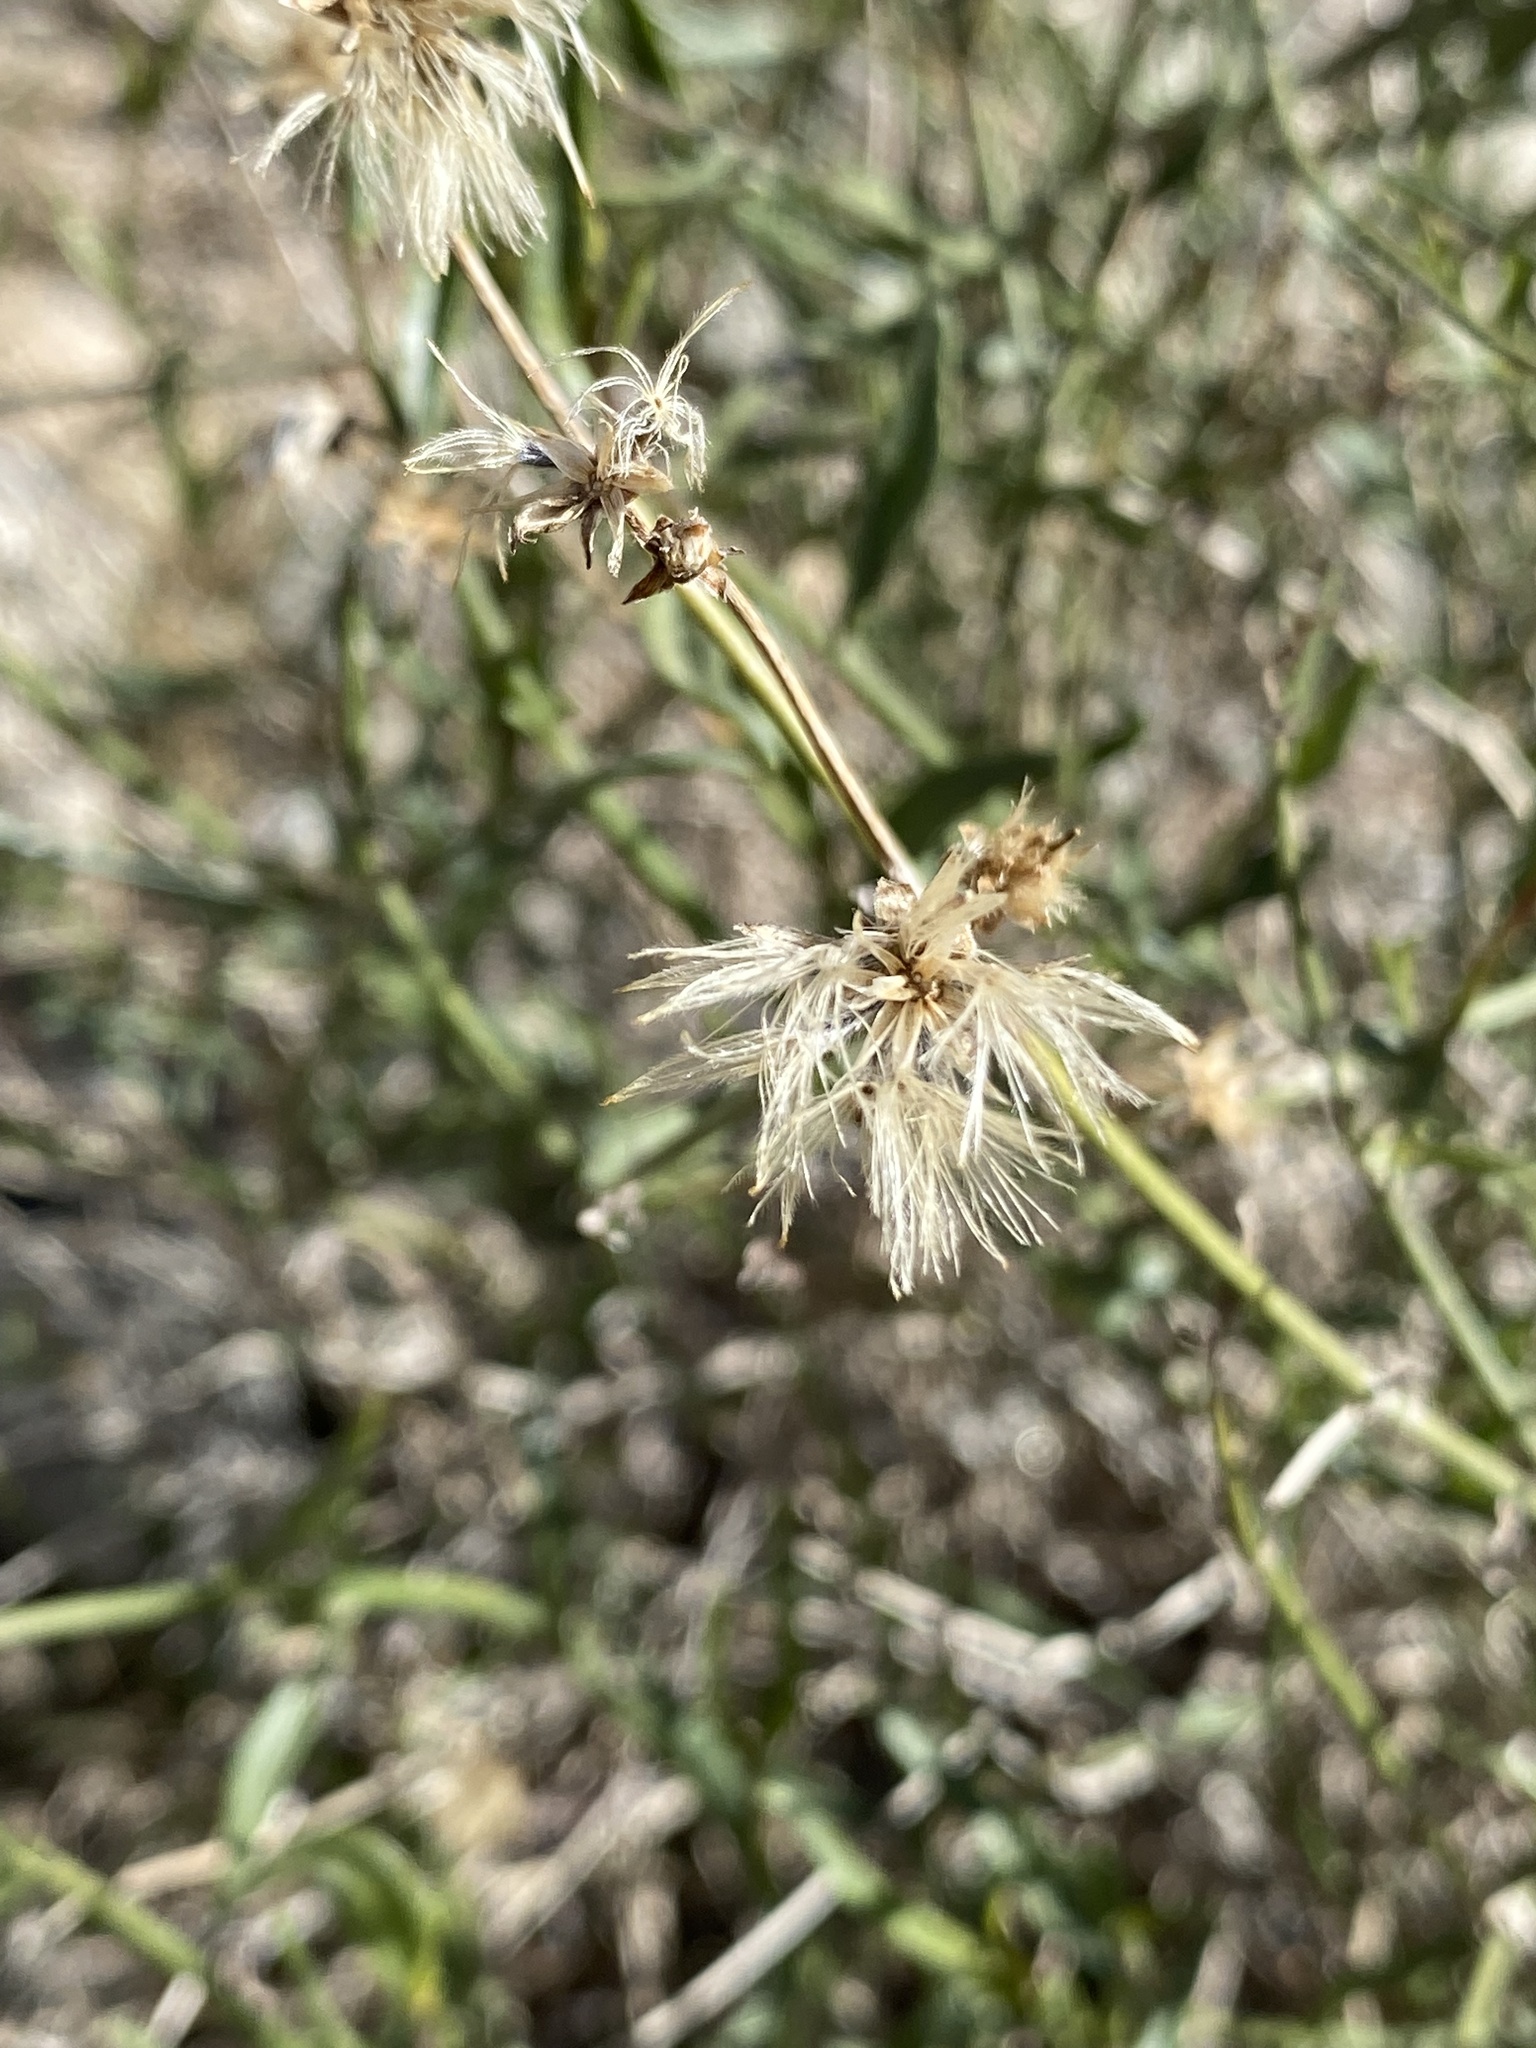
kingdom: Plantae
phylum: Tracheophyta
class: Magnoliopsida
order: Asterales
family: Asteraceae
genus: Bebbia
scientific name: Bebbia juncea
